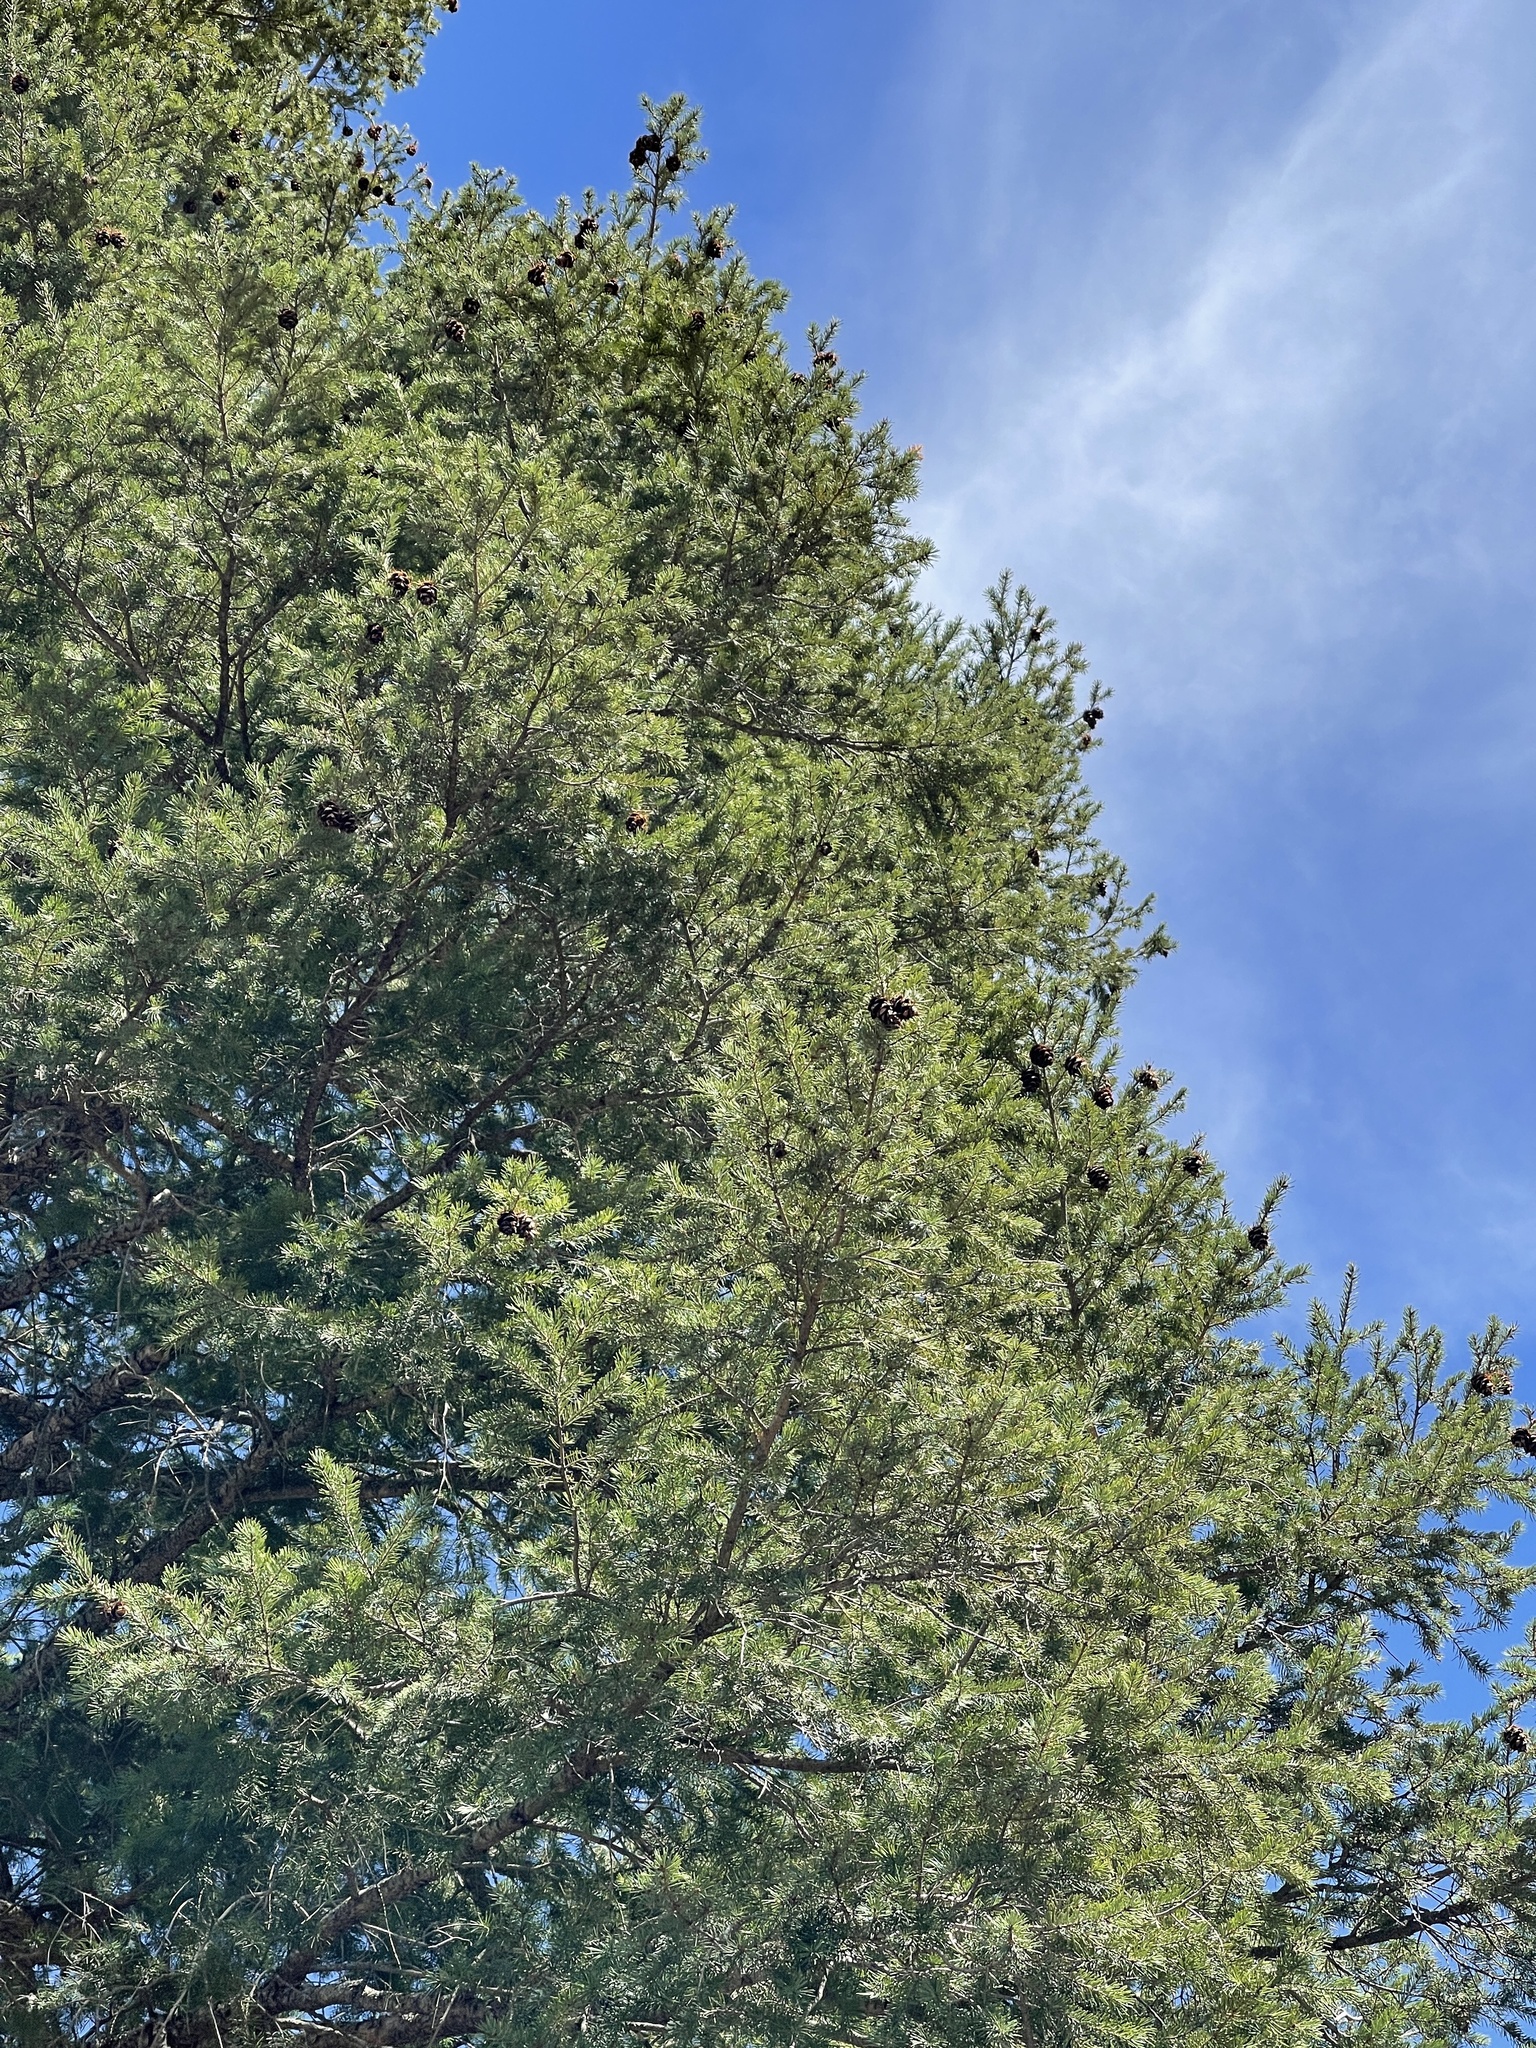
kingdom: Plantae
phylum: Tracheophyta
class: Pinopsida
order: Pinales
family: Pinaceae
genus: Pseudotsuga
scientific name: Pseudotsuga menziesii
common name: Douglas fir
